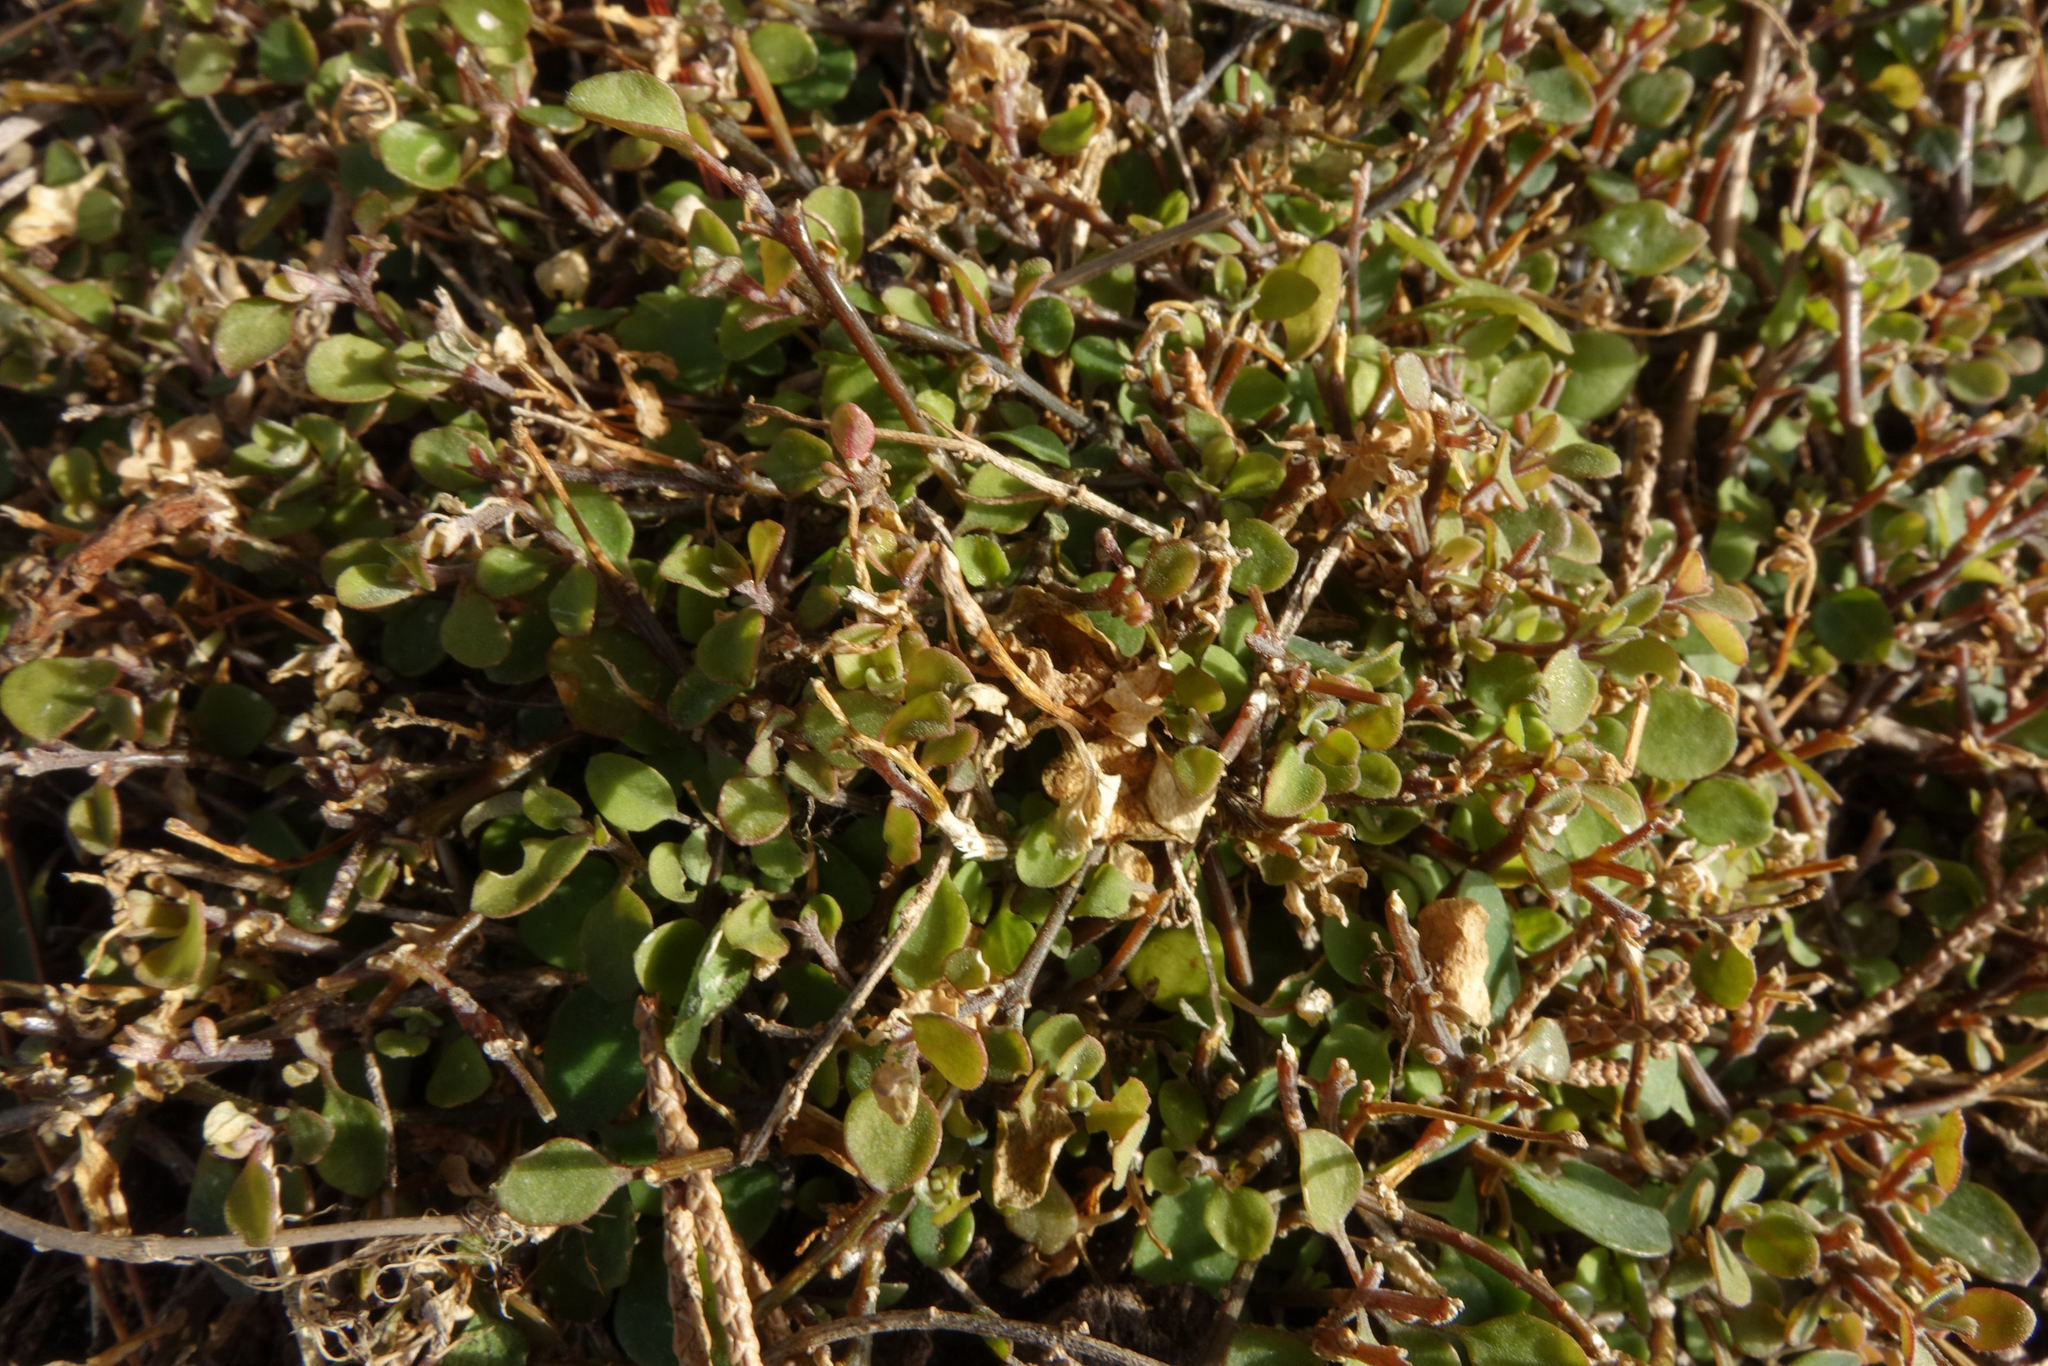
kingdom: Plantae
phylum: Tracheophyta
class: Magnoliopsida
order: Caryophyllales
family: Amaranthaceae
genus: Chenopodium
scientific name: Chenopodium allanii
